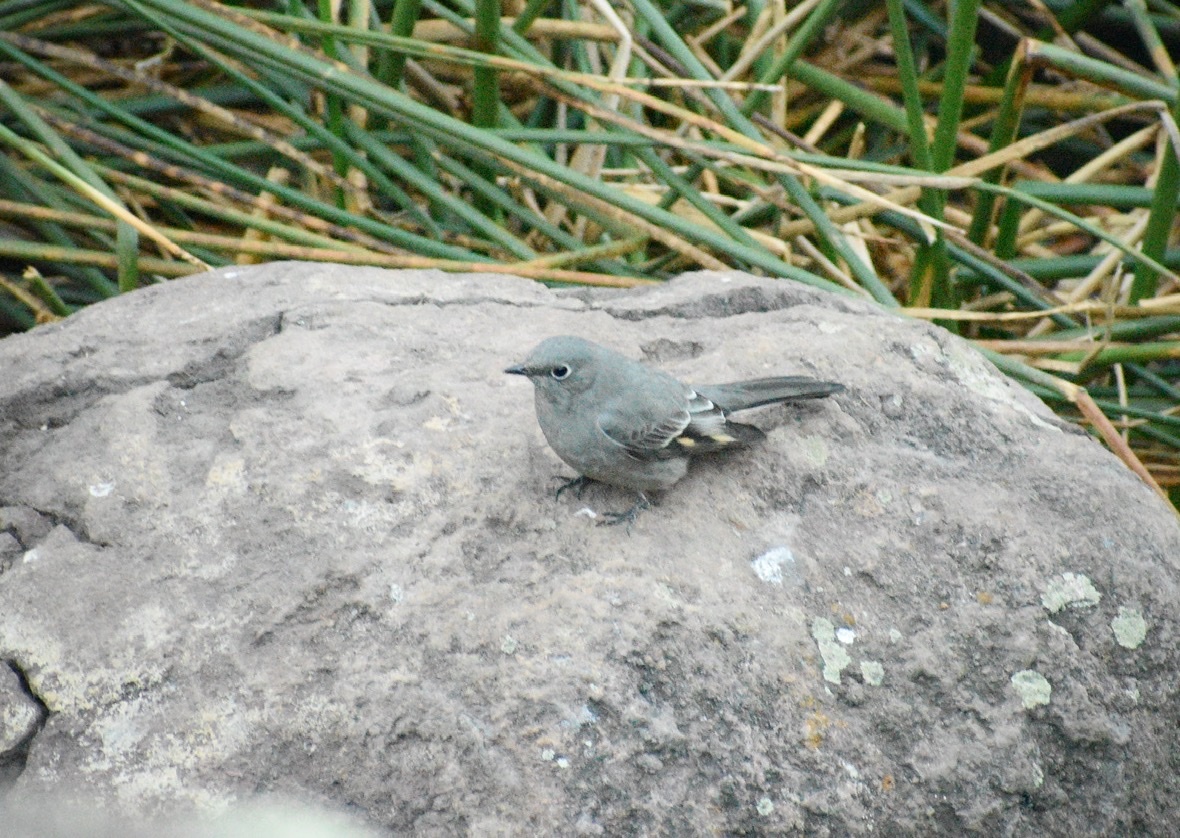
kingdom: Animalia
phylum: Chordata
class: Aves
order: Passeriformes
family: Turdidae
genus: Myadestes
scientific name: Myadestes townsendi
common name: Townsend's solitaire
